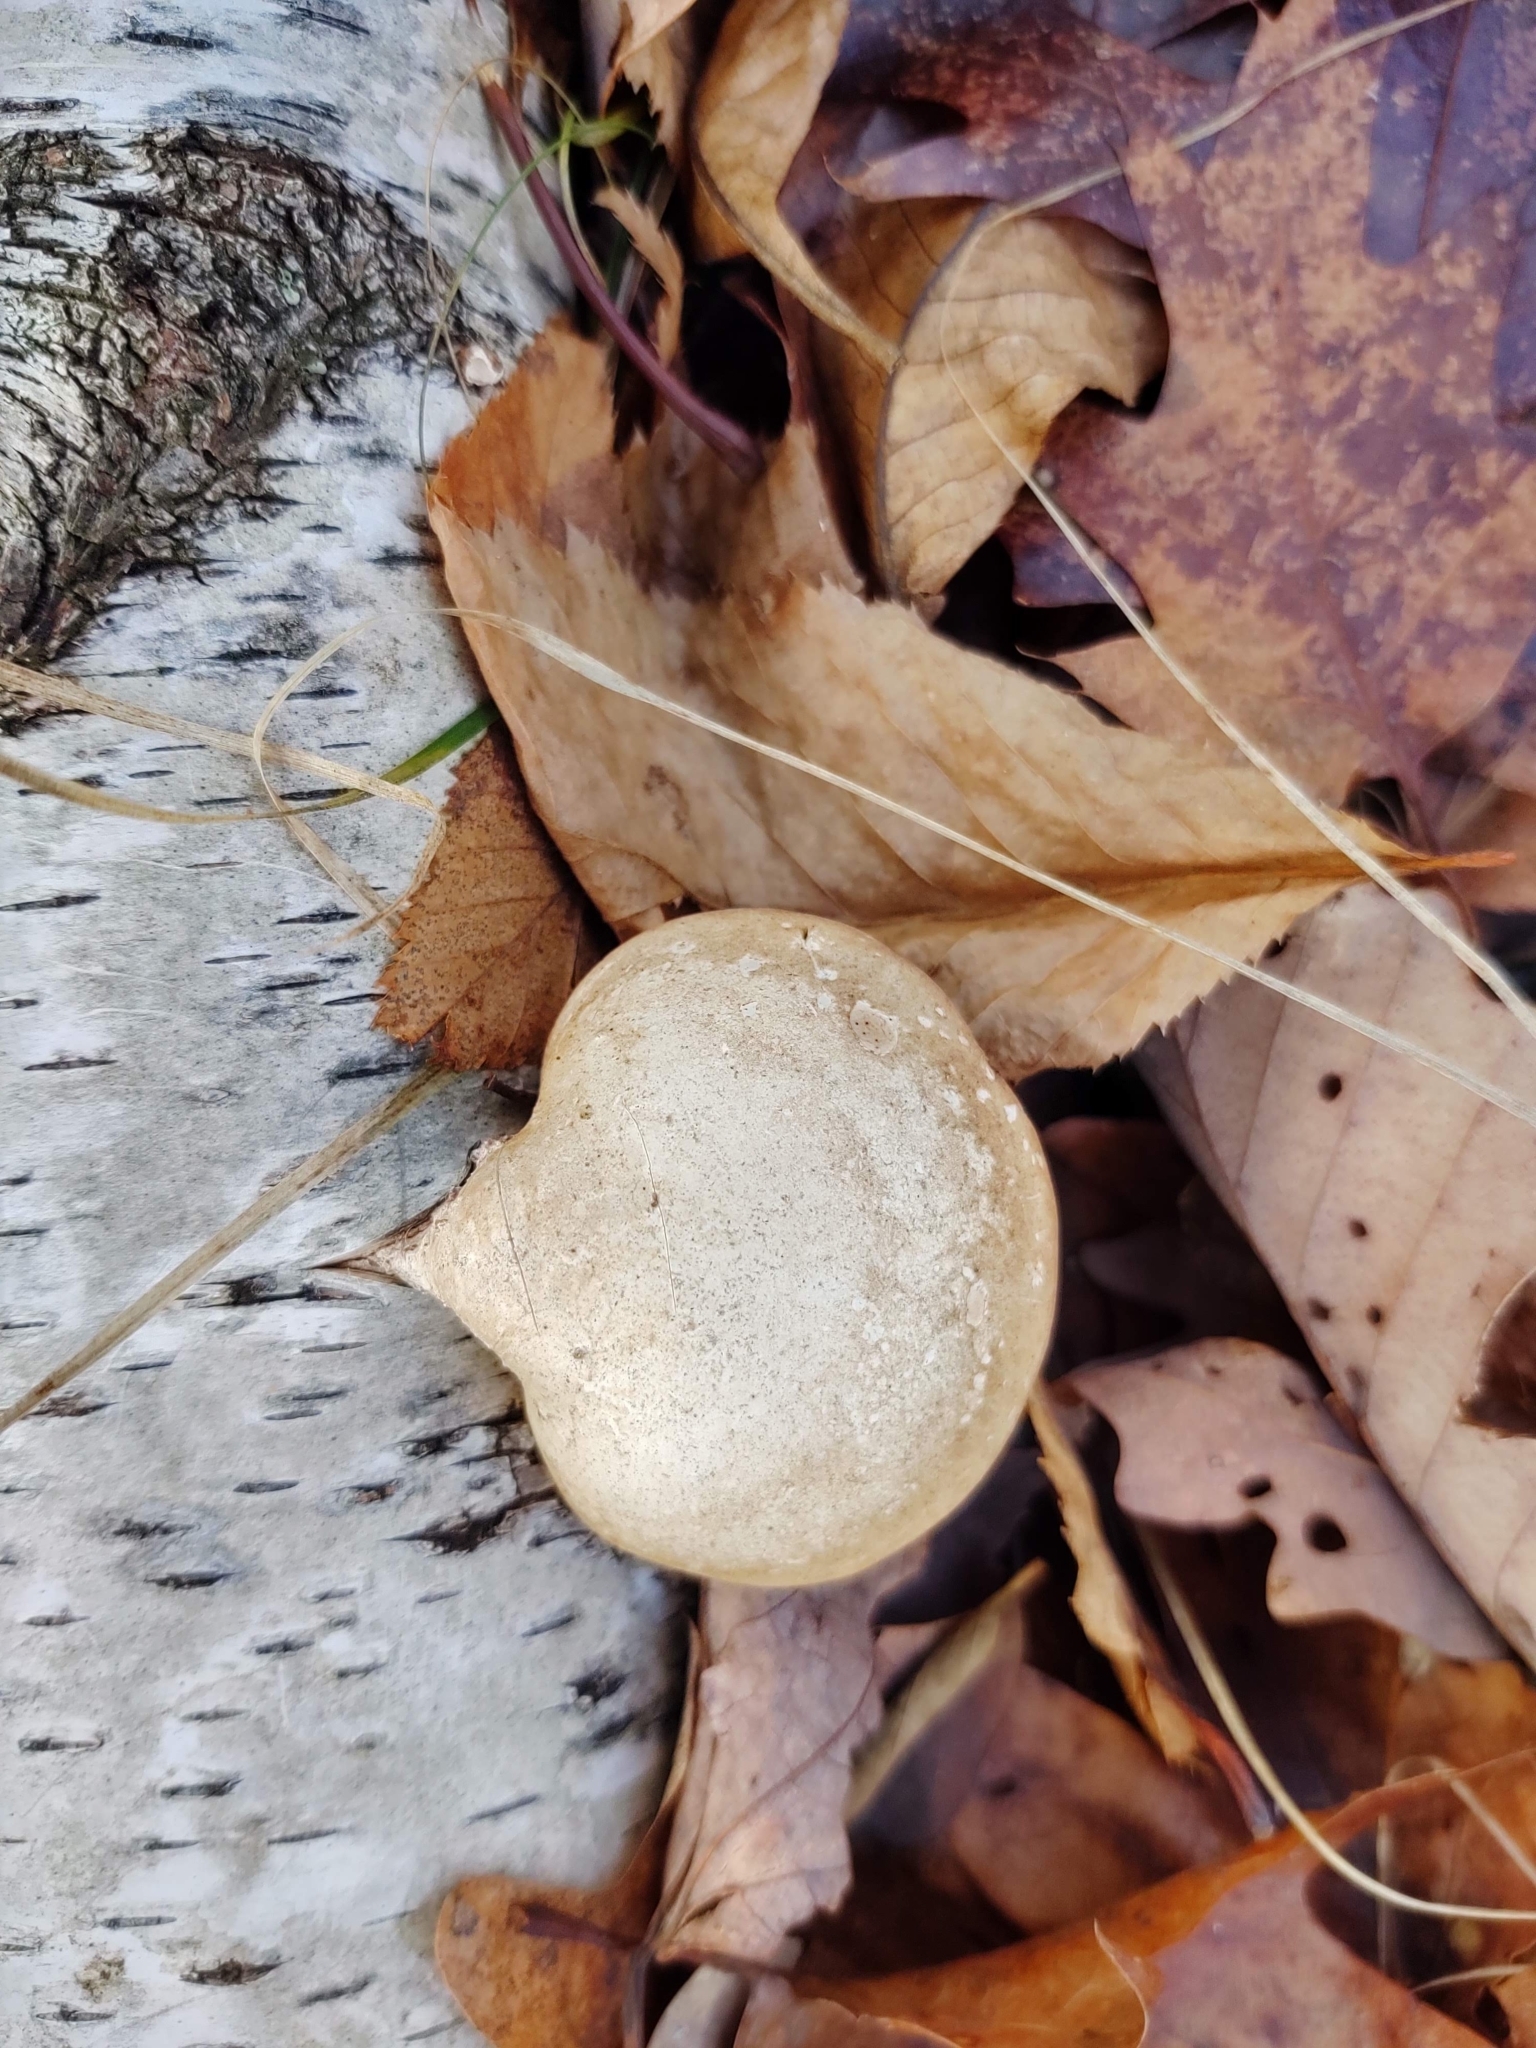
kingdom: Fungi
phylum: Basidiomycota
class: Agaricomycetes
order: Polyporales
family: Fomitopsidaceae
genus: Fomitopsis
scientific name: Fomitopsis betulina
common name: Birch polypore
